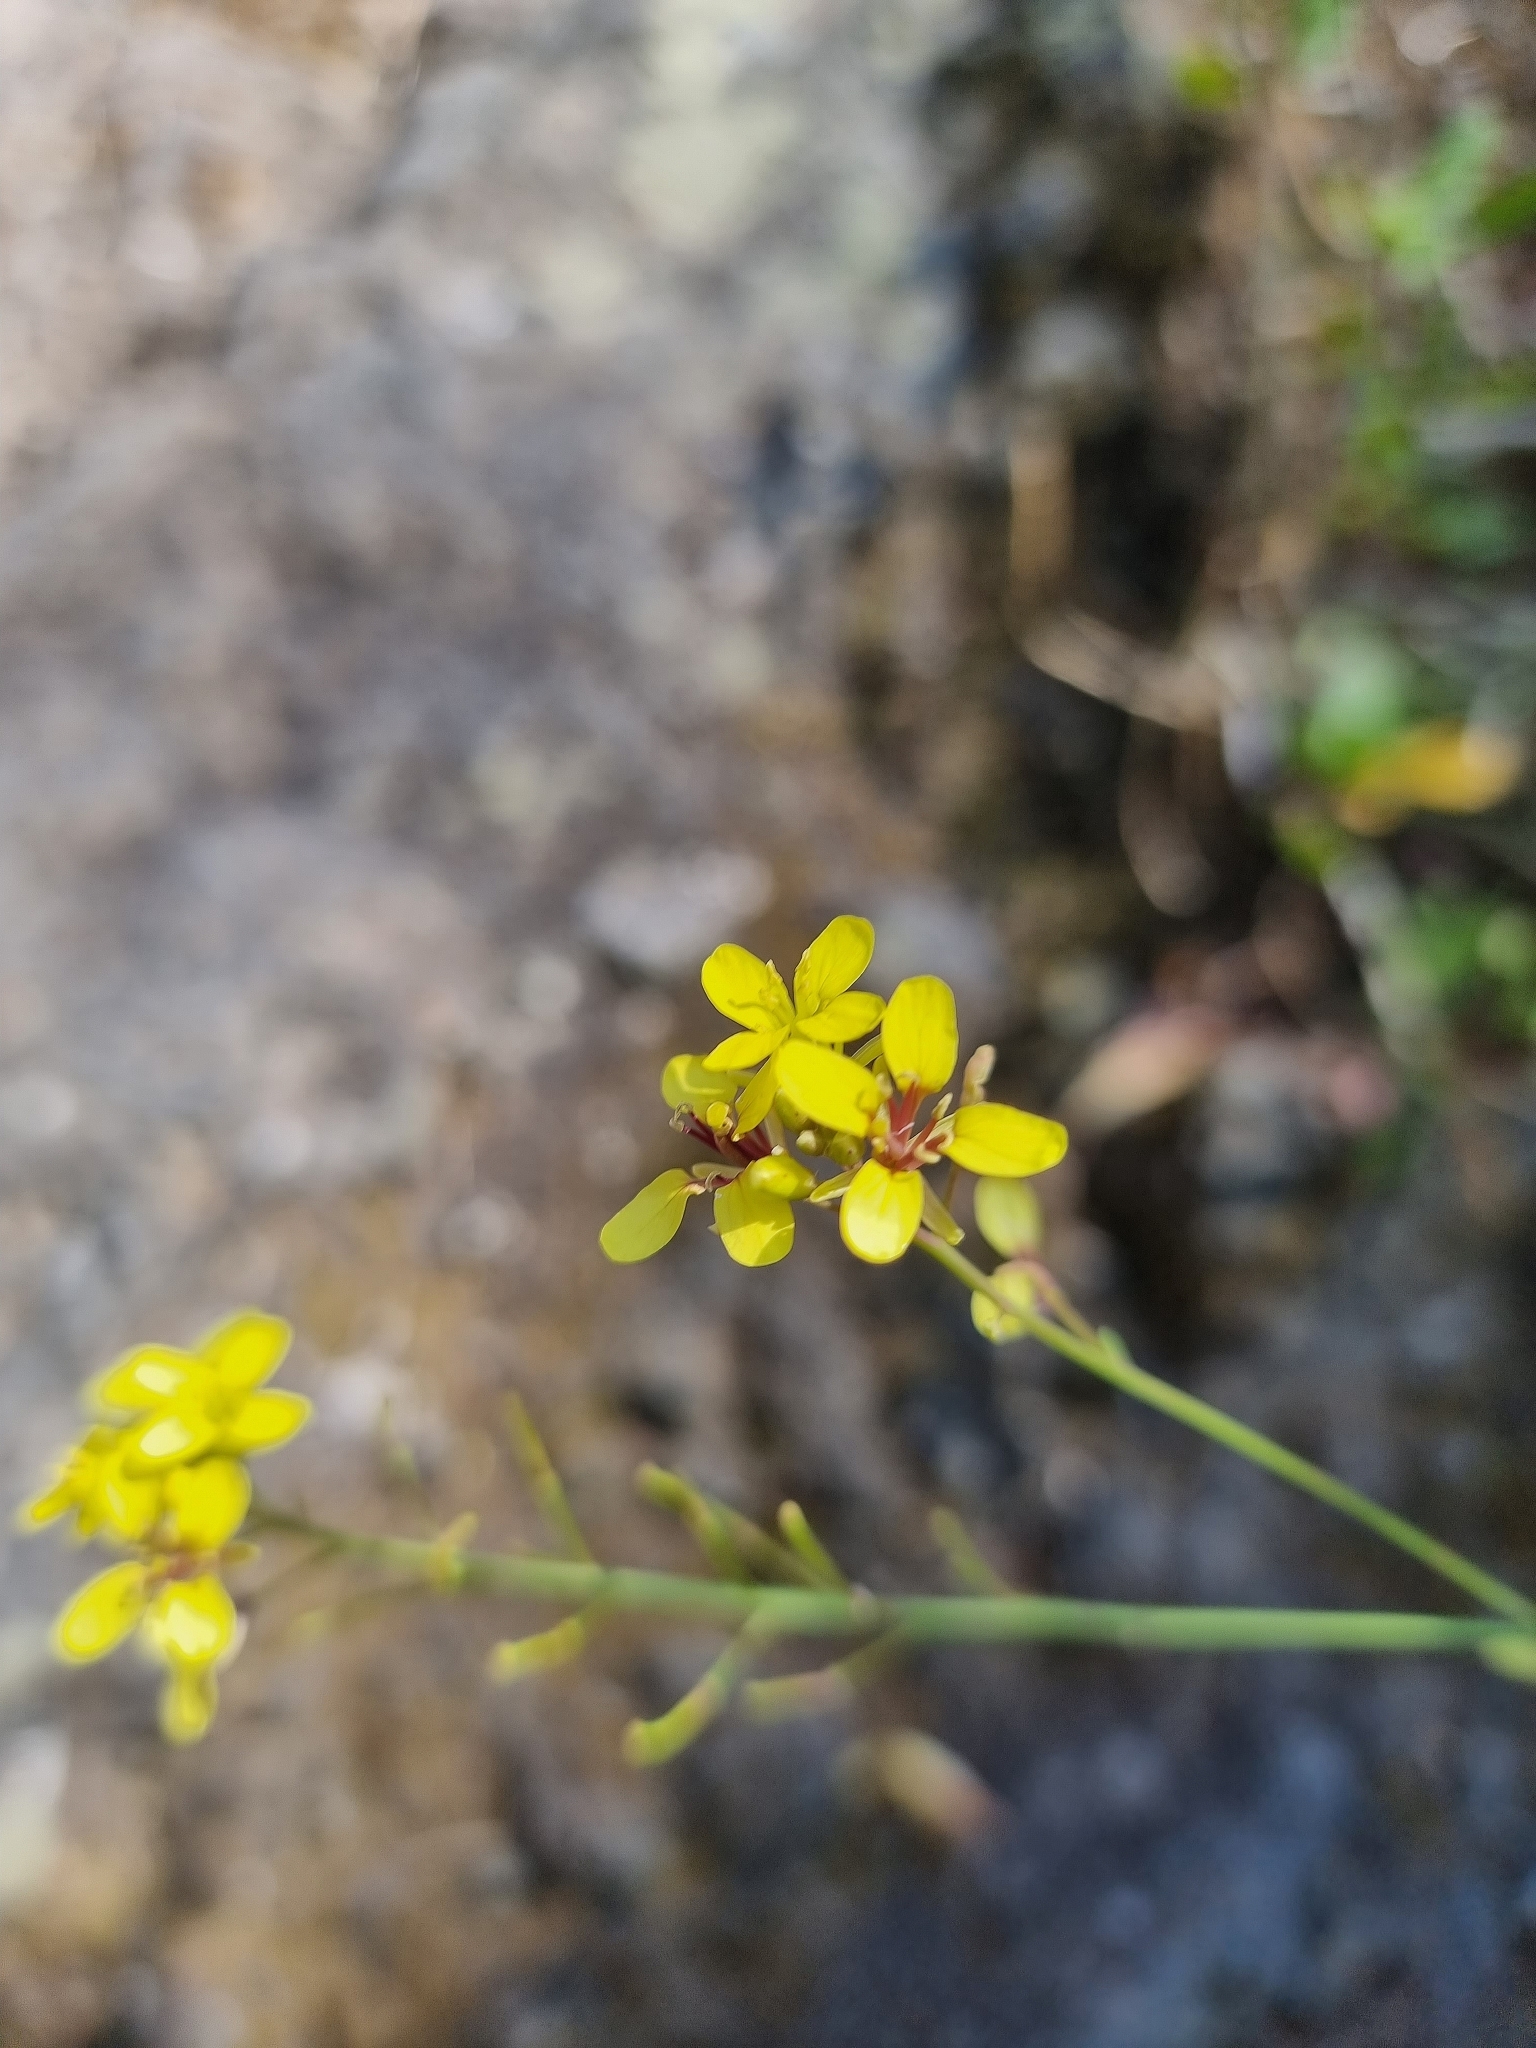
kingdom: Plantae
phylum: Tracheophyta
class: Magnoliopsida
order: Brassicales
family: Brassicaceae
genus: Sinapidendron
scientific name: Sinapidendron frutescens
